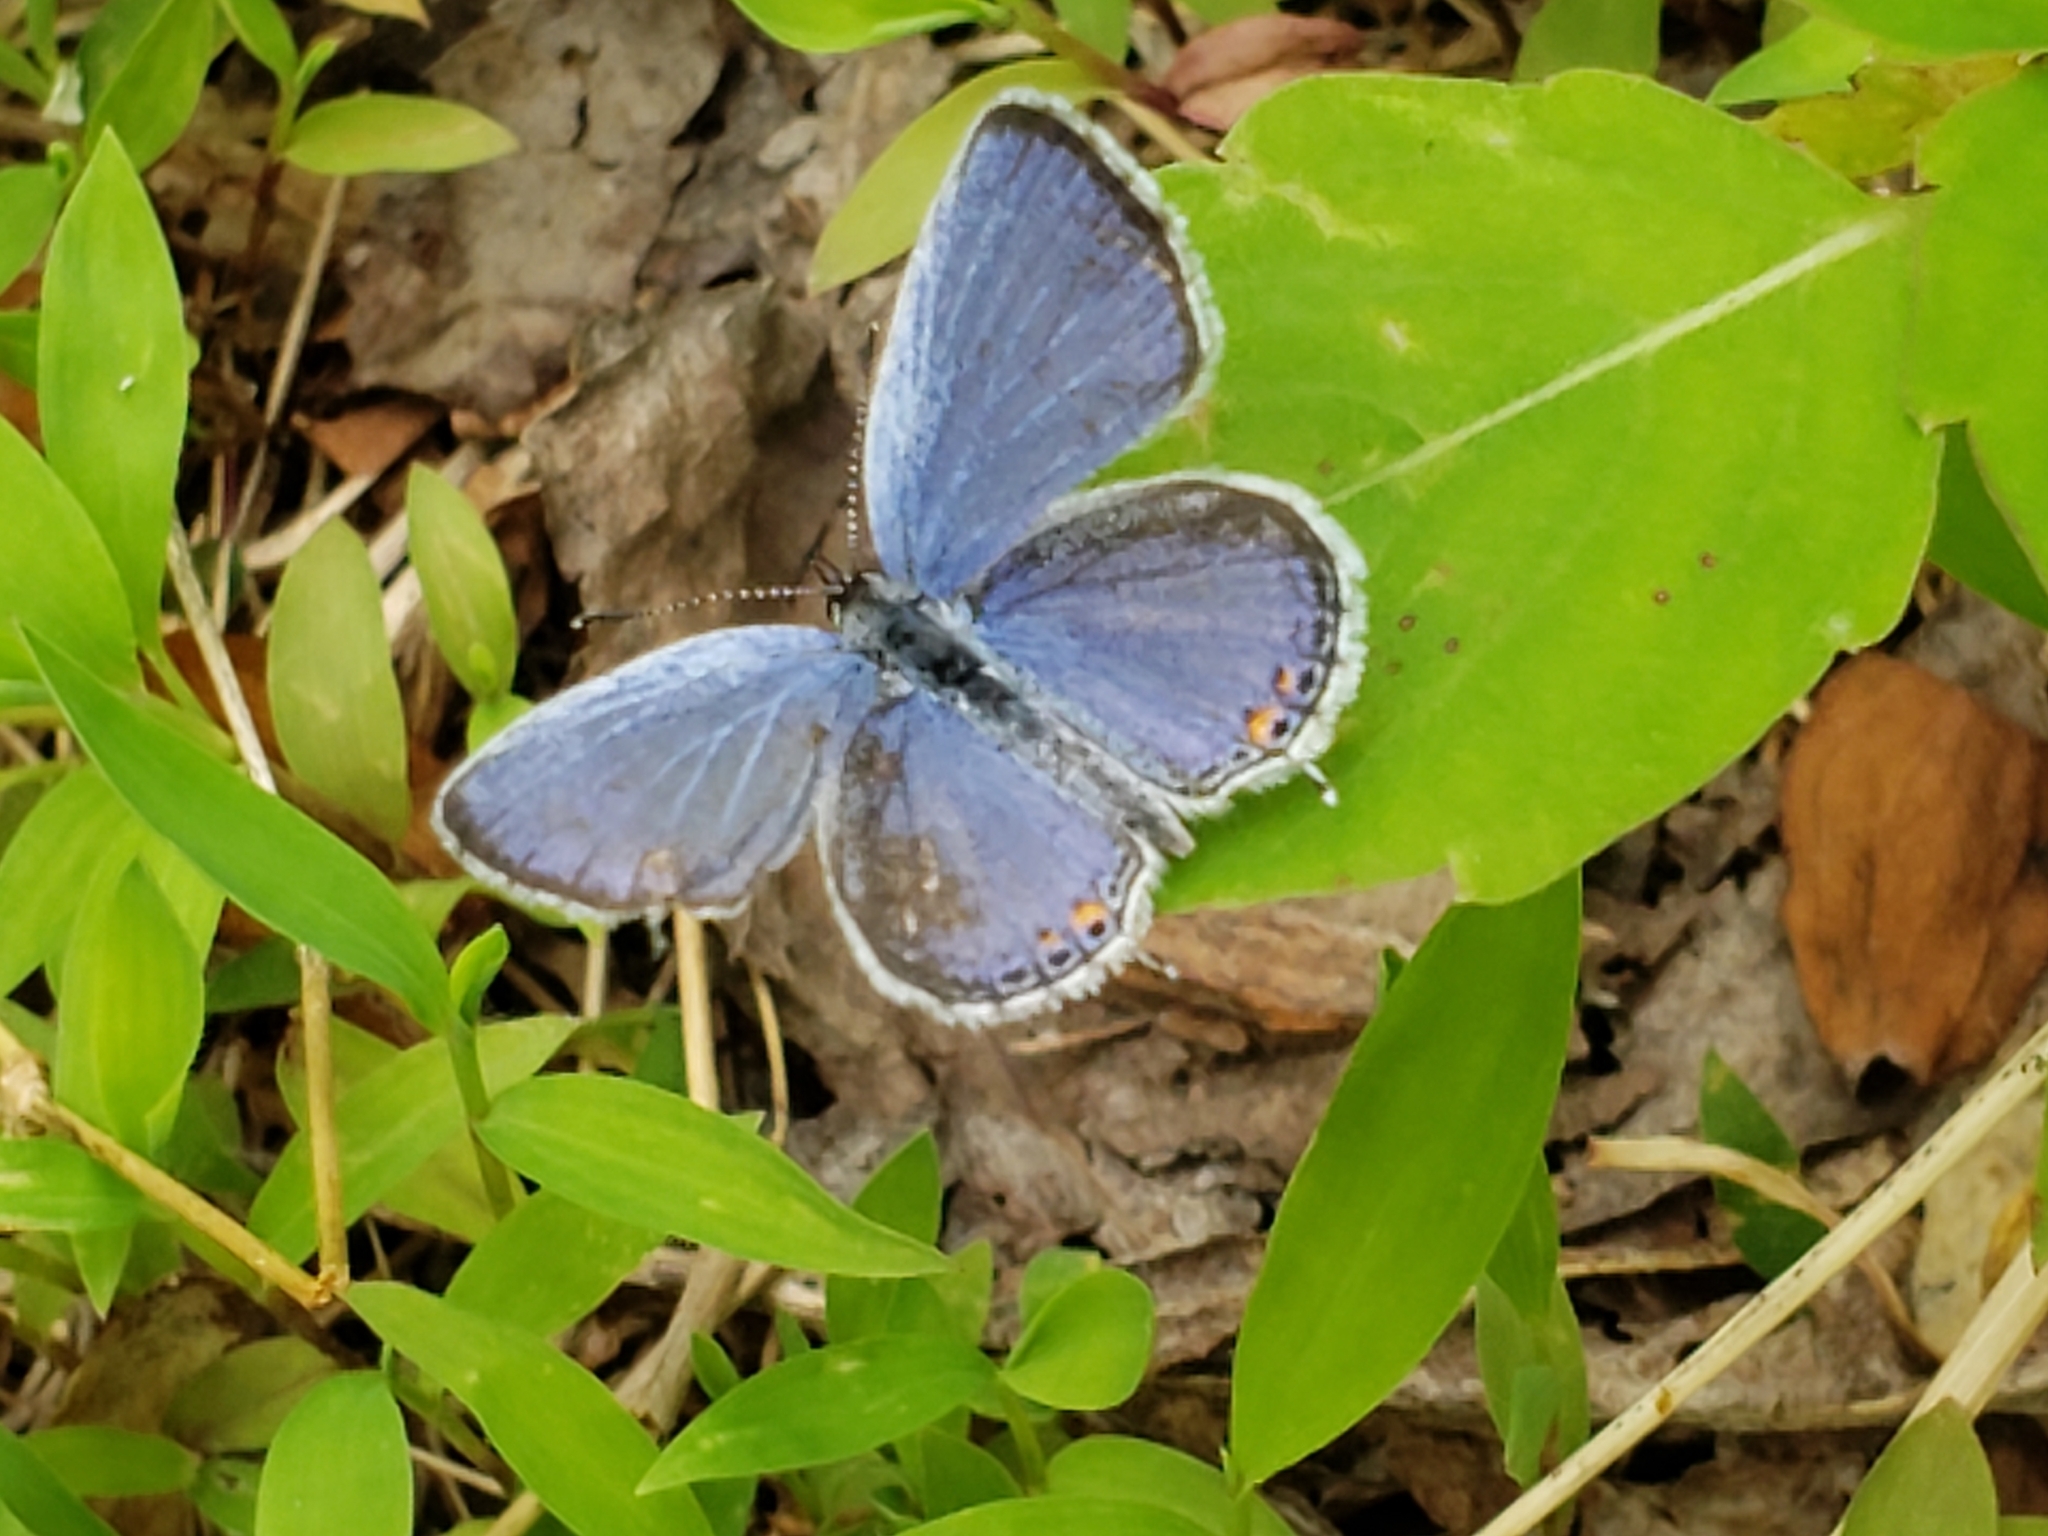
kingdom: Animalia
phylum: Arthropoda
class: Insecta
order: Lepidoptera
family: Lycaenidae
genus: Elkalyce
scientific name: Elkalyce comyntas
